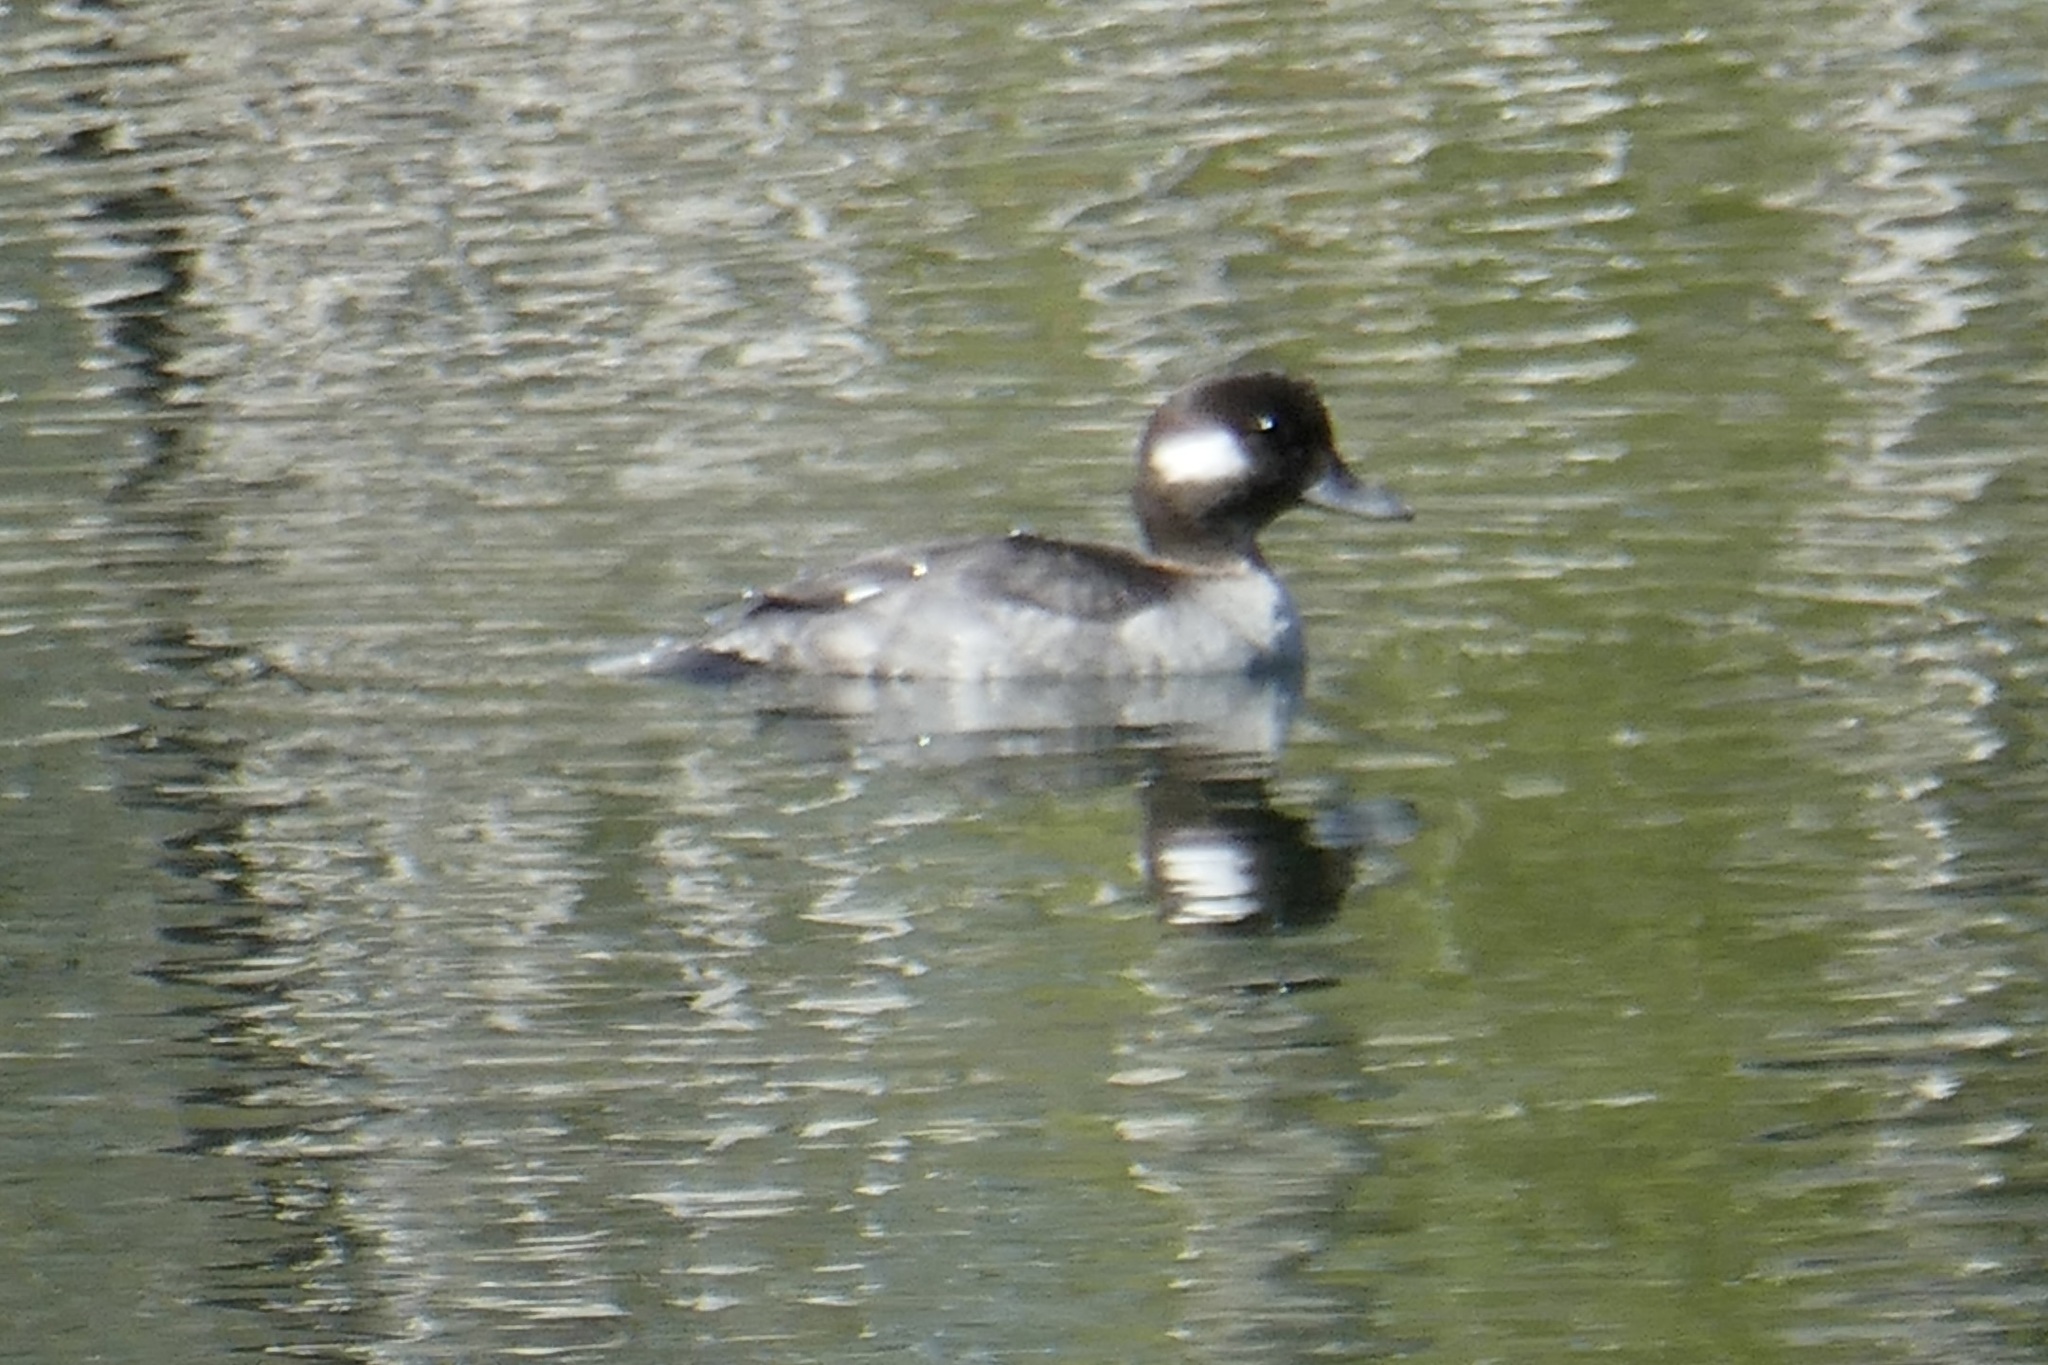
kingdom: Animalia
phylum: Chordata
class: Aves
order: Anseriformes
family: Anatidae
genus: Bucephala
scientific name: Bucephala albeola
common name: Bufflehead
